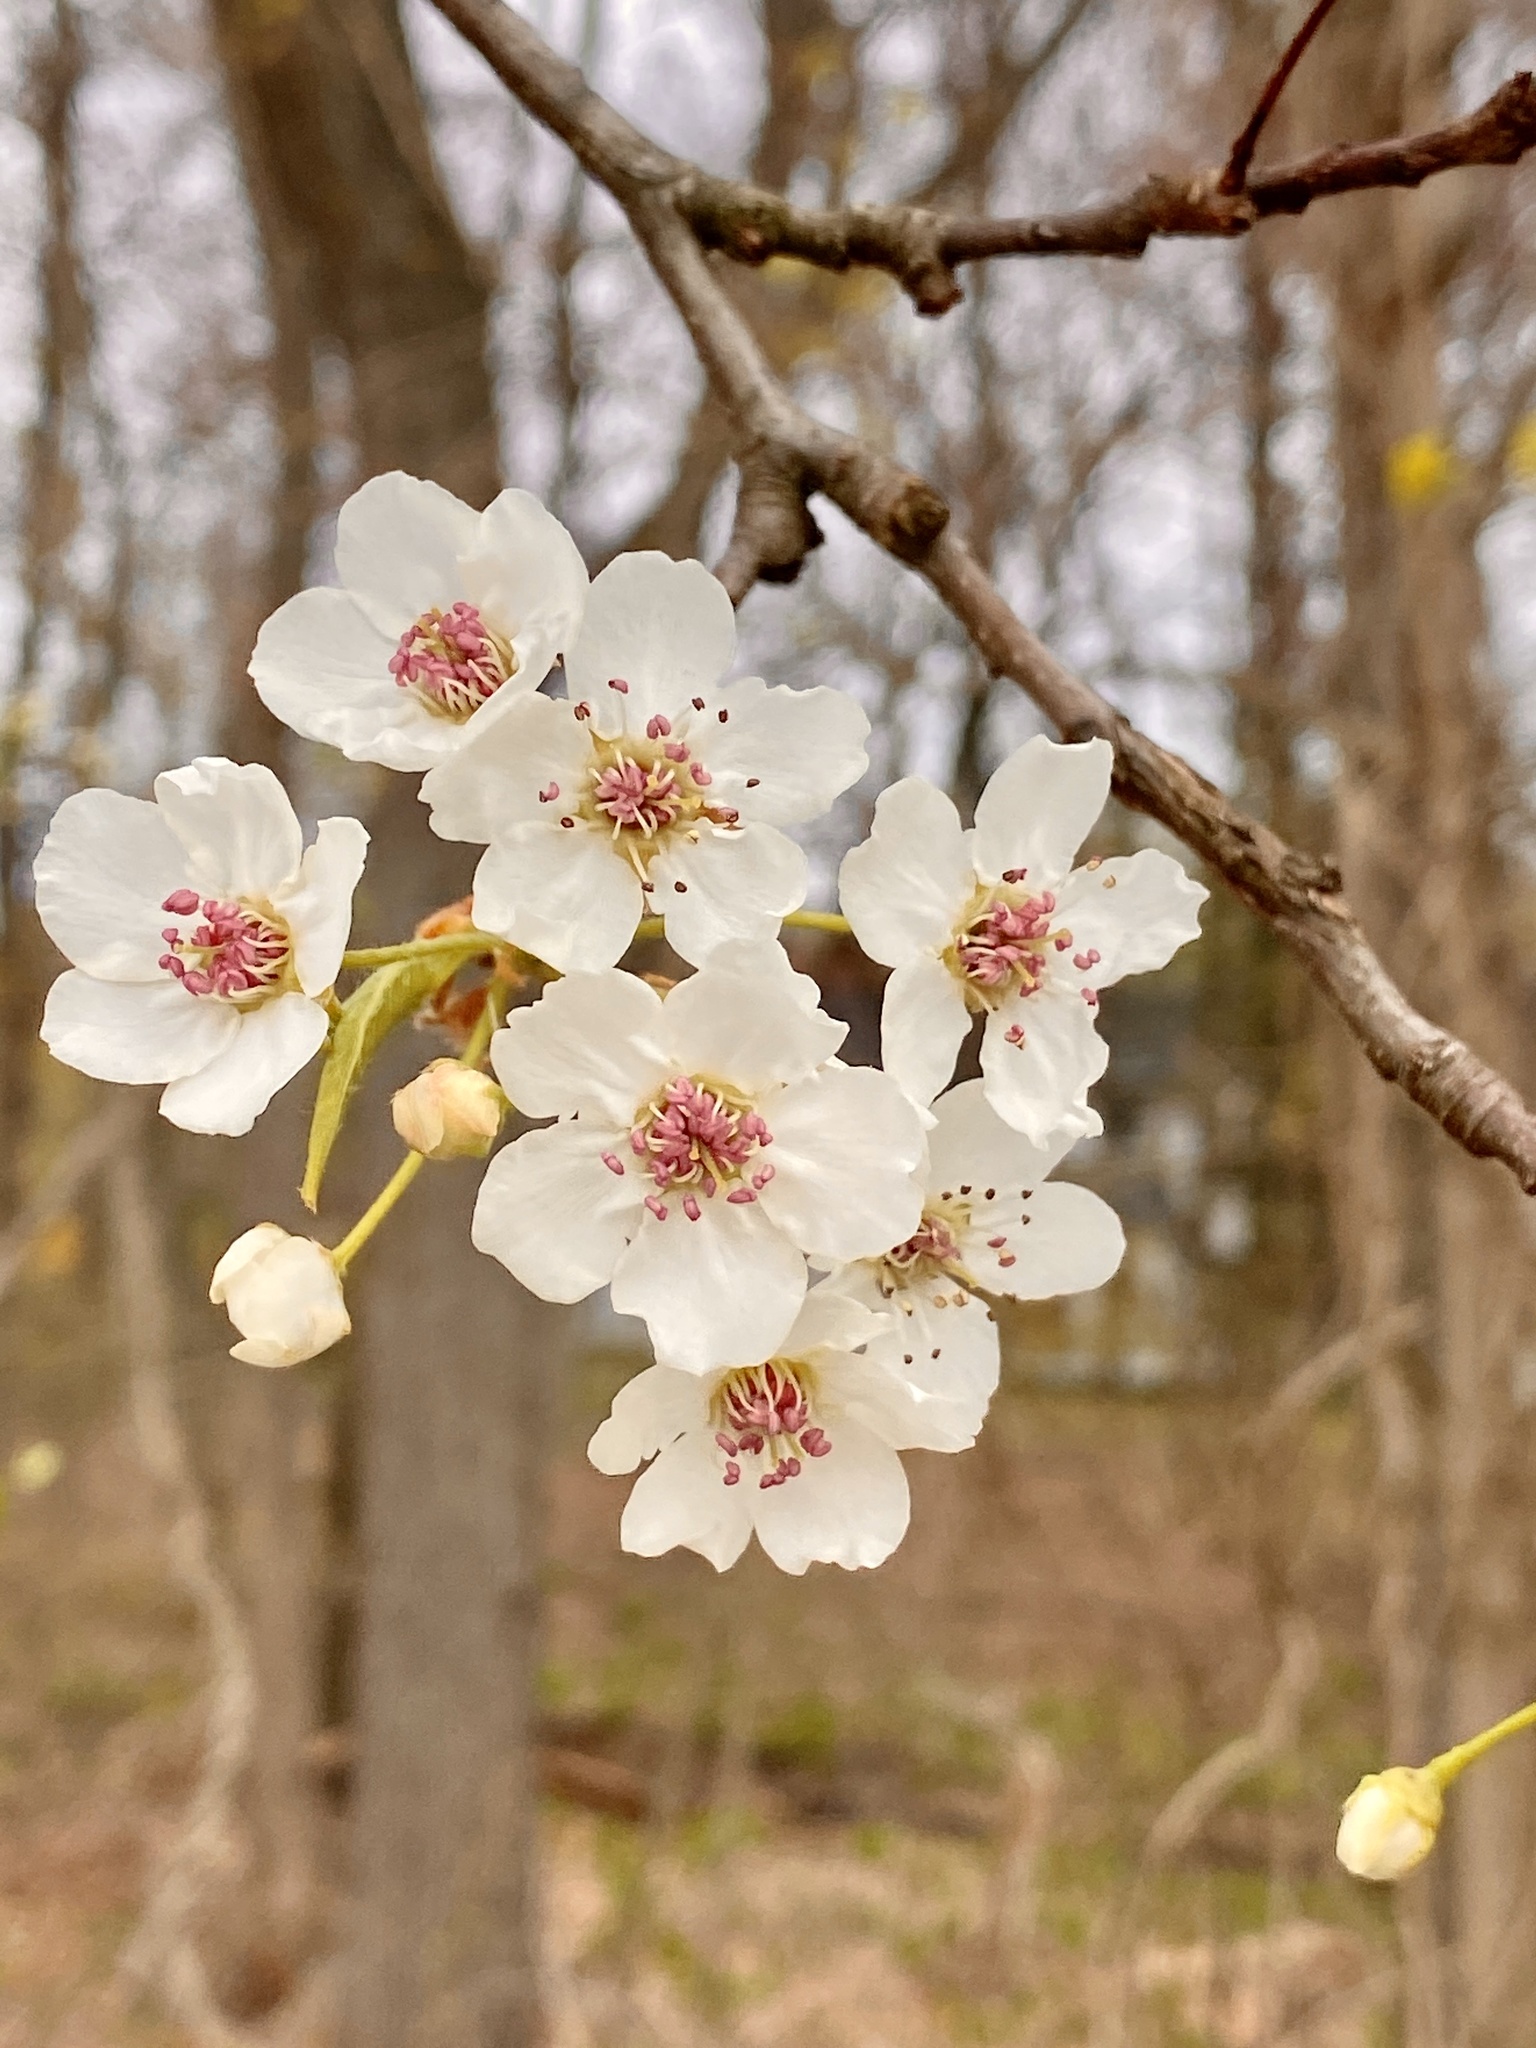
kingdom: Plantae
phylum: Tracheophyta
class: Magnoliopsida
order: Rosales
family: Rosaceae
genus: Pyrus
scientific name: Pyrus calleryana
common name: Callery pear
